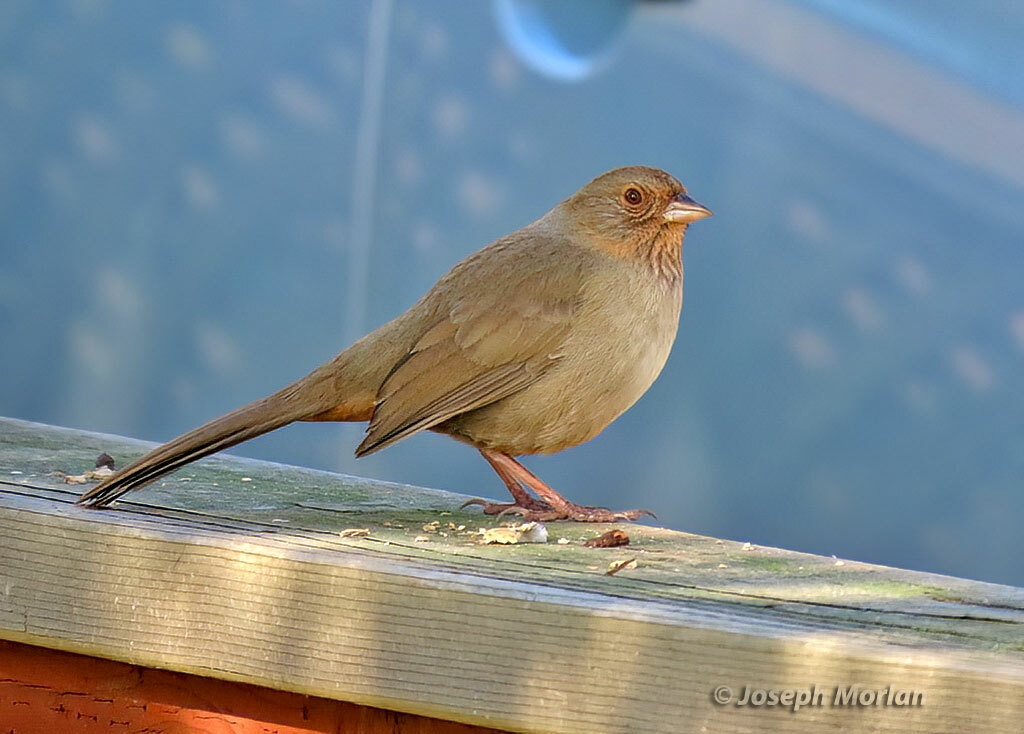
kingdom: Animalia
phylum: Chordata
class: Aves
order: Passeriformes
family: Passerellidae
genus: Melozone
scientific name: Melozone crissalis
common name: California towhee
